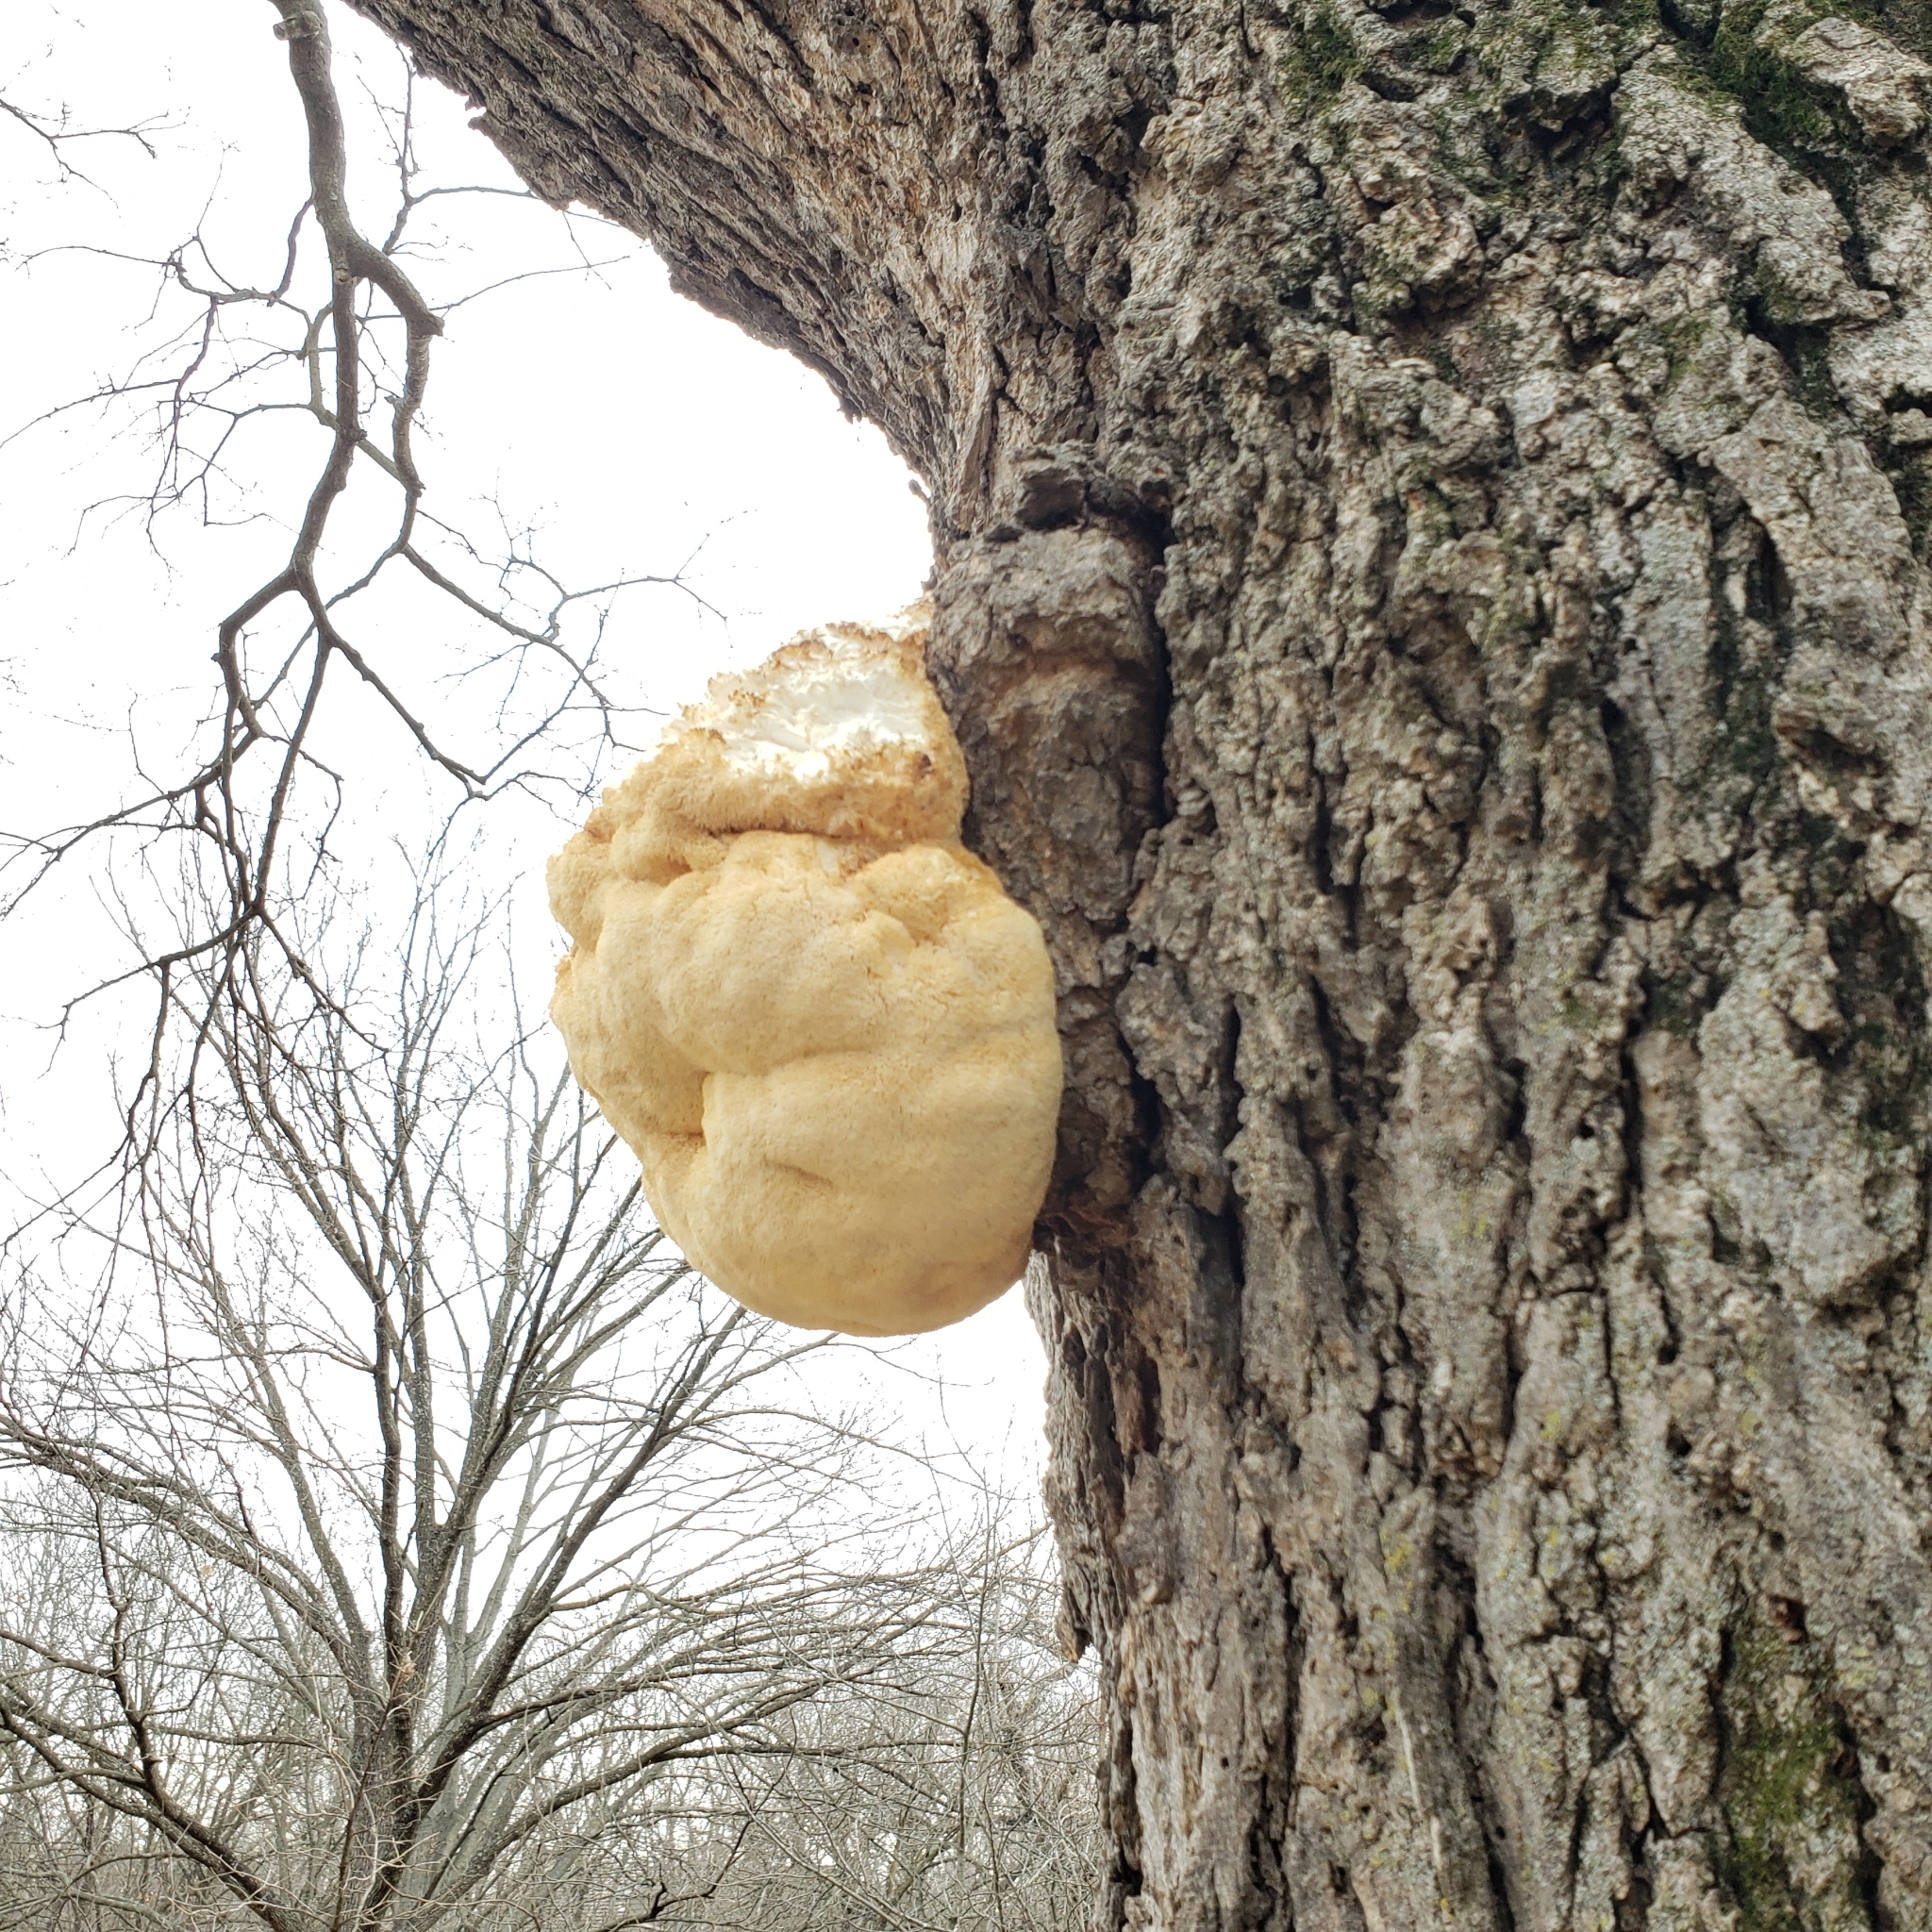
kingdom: Fungi
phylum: Basidiomycota
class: Agaricomycetes
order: Russulales
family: Hericiaceae
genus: Hericium
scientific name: Hericium erinaceus
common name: Bearded tooth
